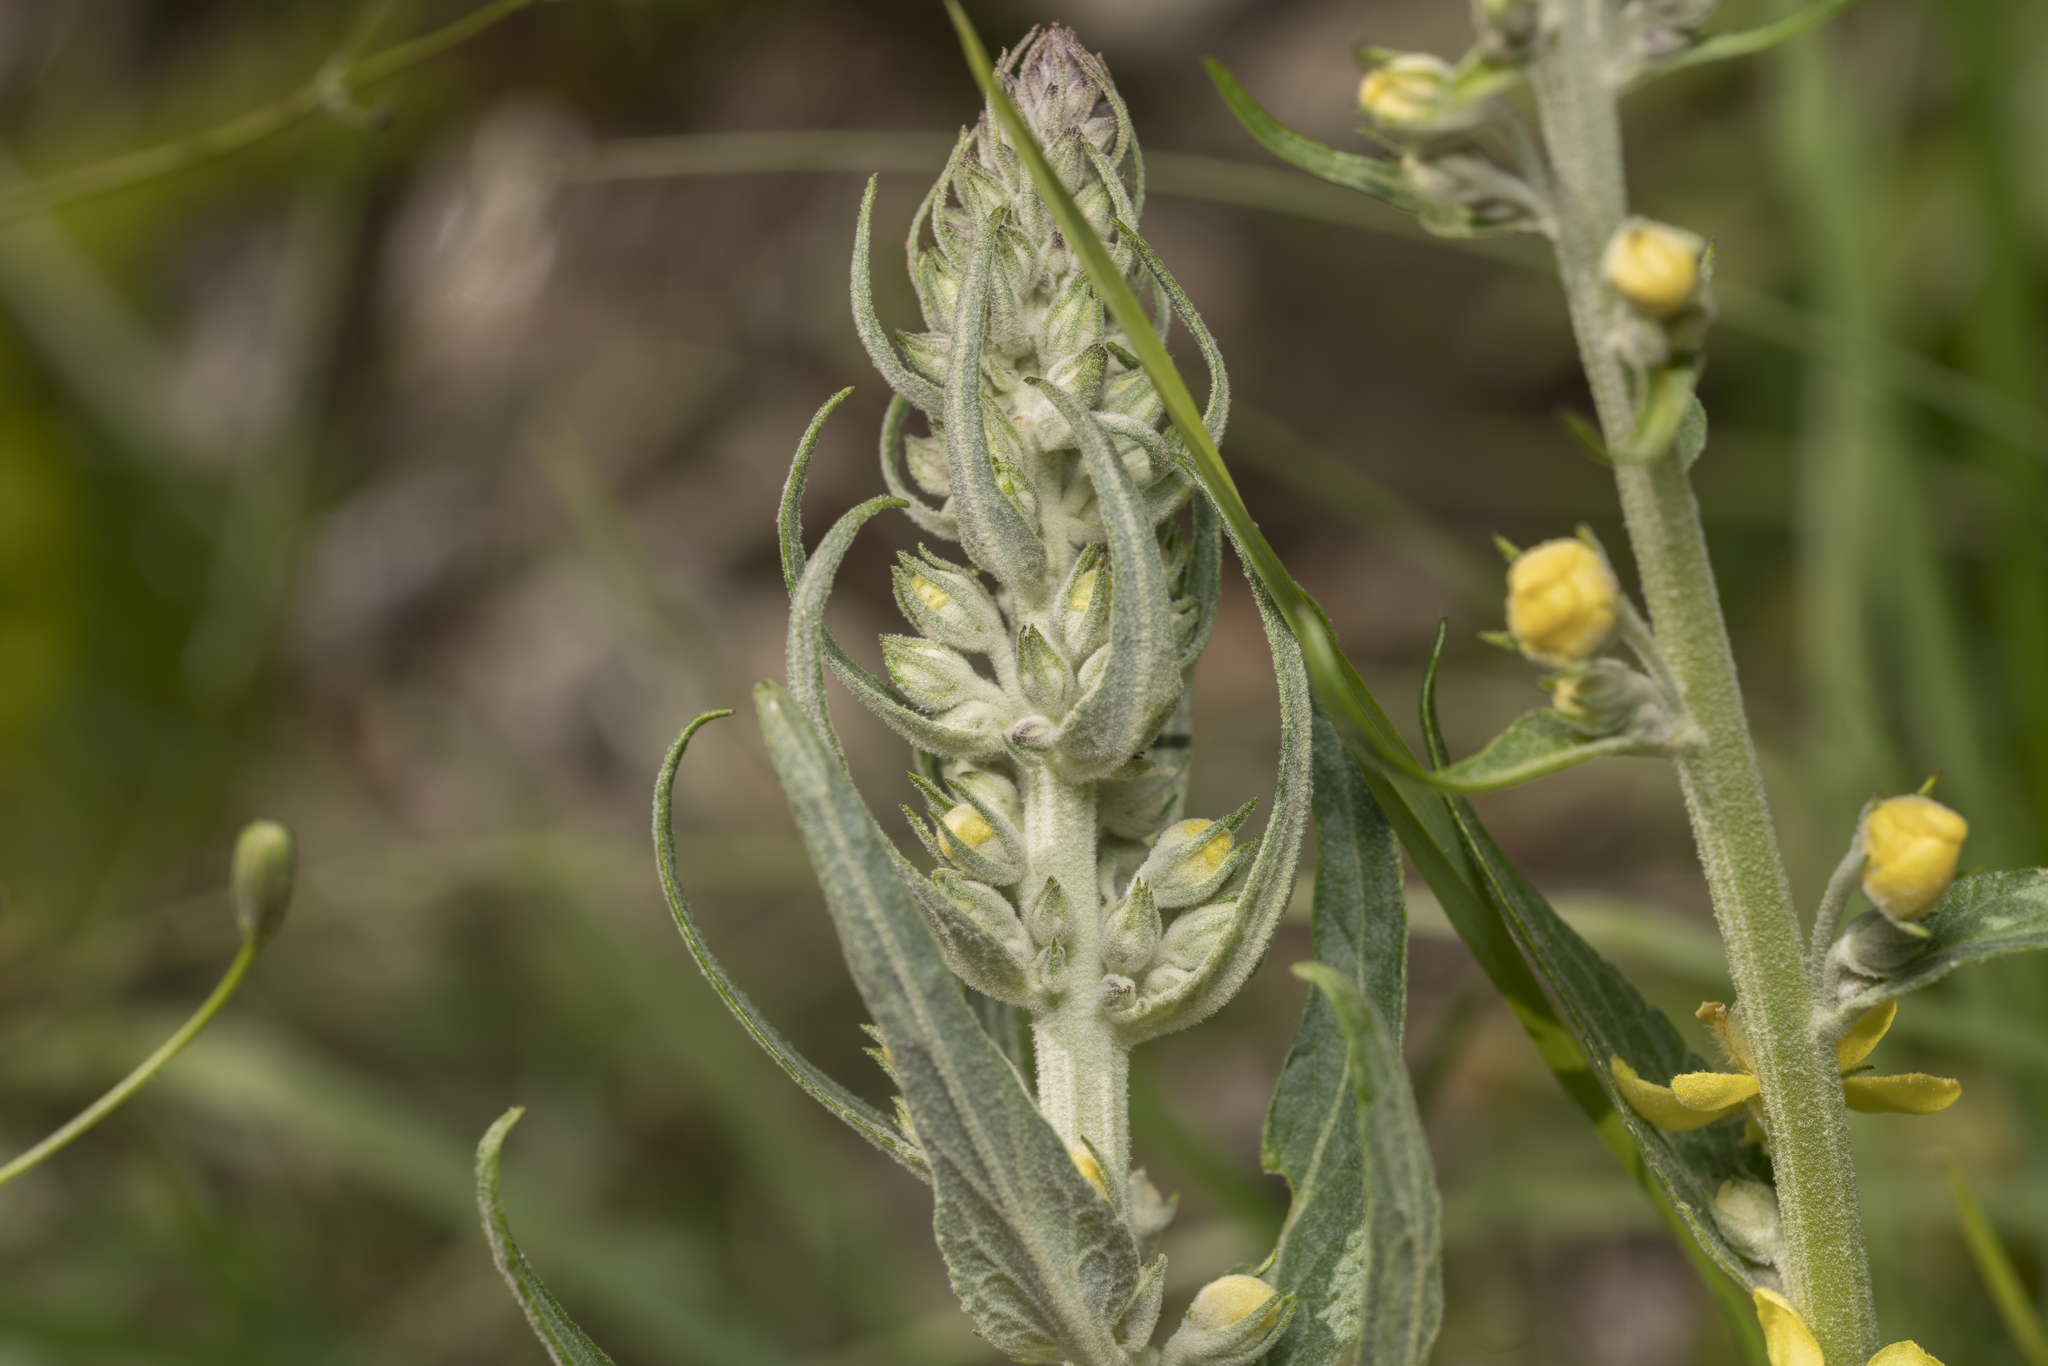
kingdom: Plantae
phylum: Tracheophyta
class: Magnoliopsida
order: Lamiales
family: Scrophulariaceae
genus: Verbascum
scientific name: Verbascum lychnitis
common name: White mullein
